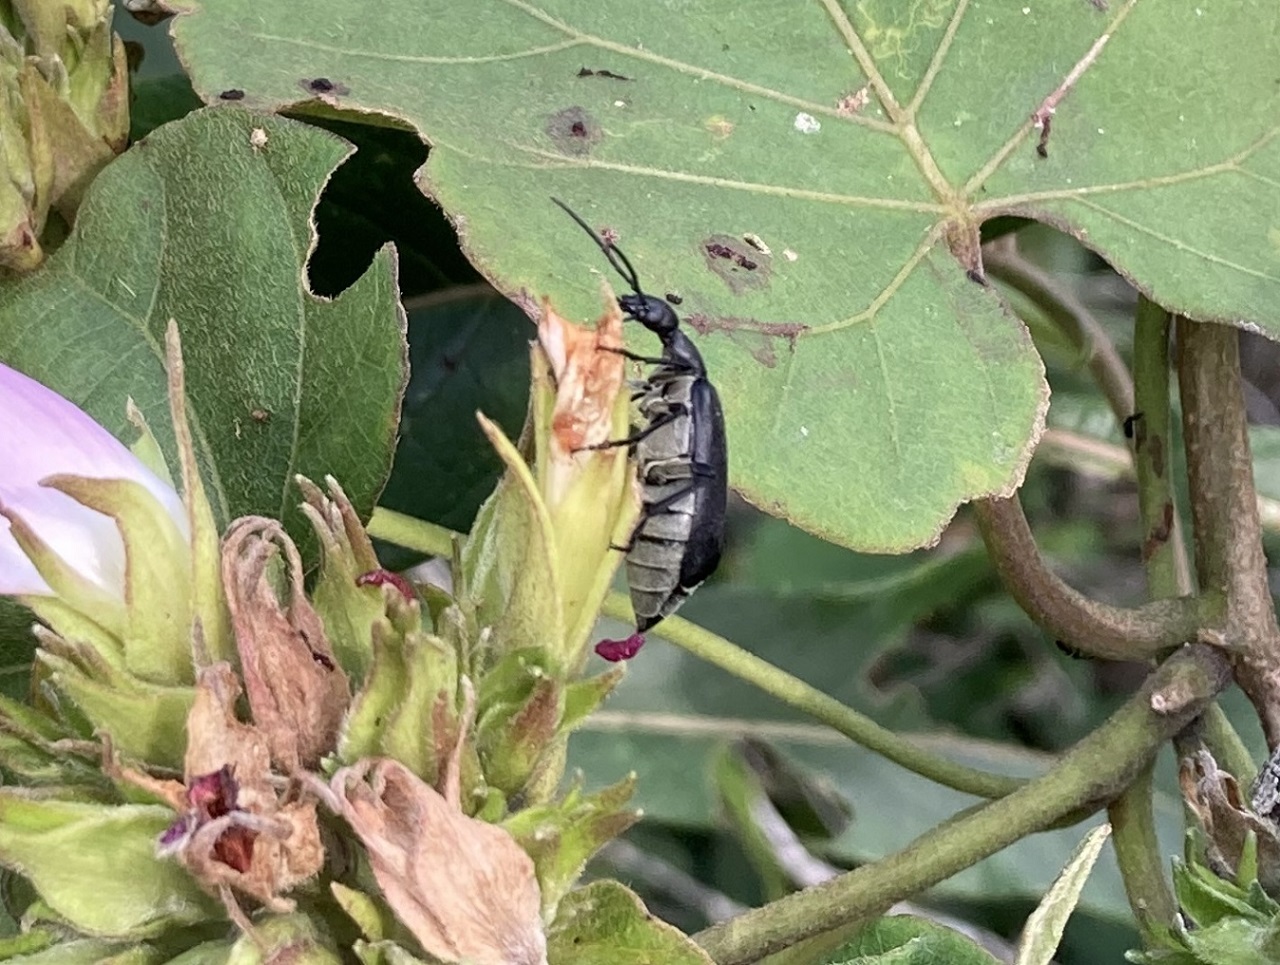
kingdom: Animalia
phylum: Arthropoda
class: Insecta
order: Coleoptera
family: Meloidae
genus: Epicauta
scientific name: Epicauta cinereiventris
